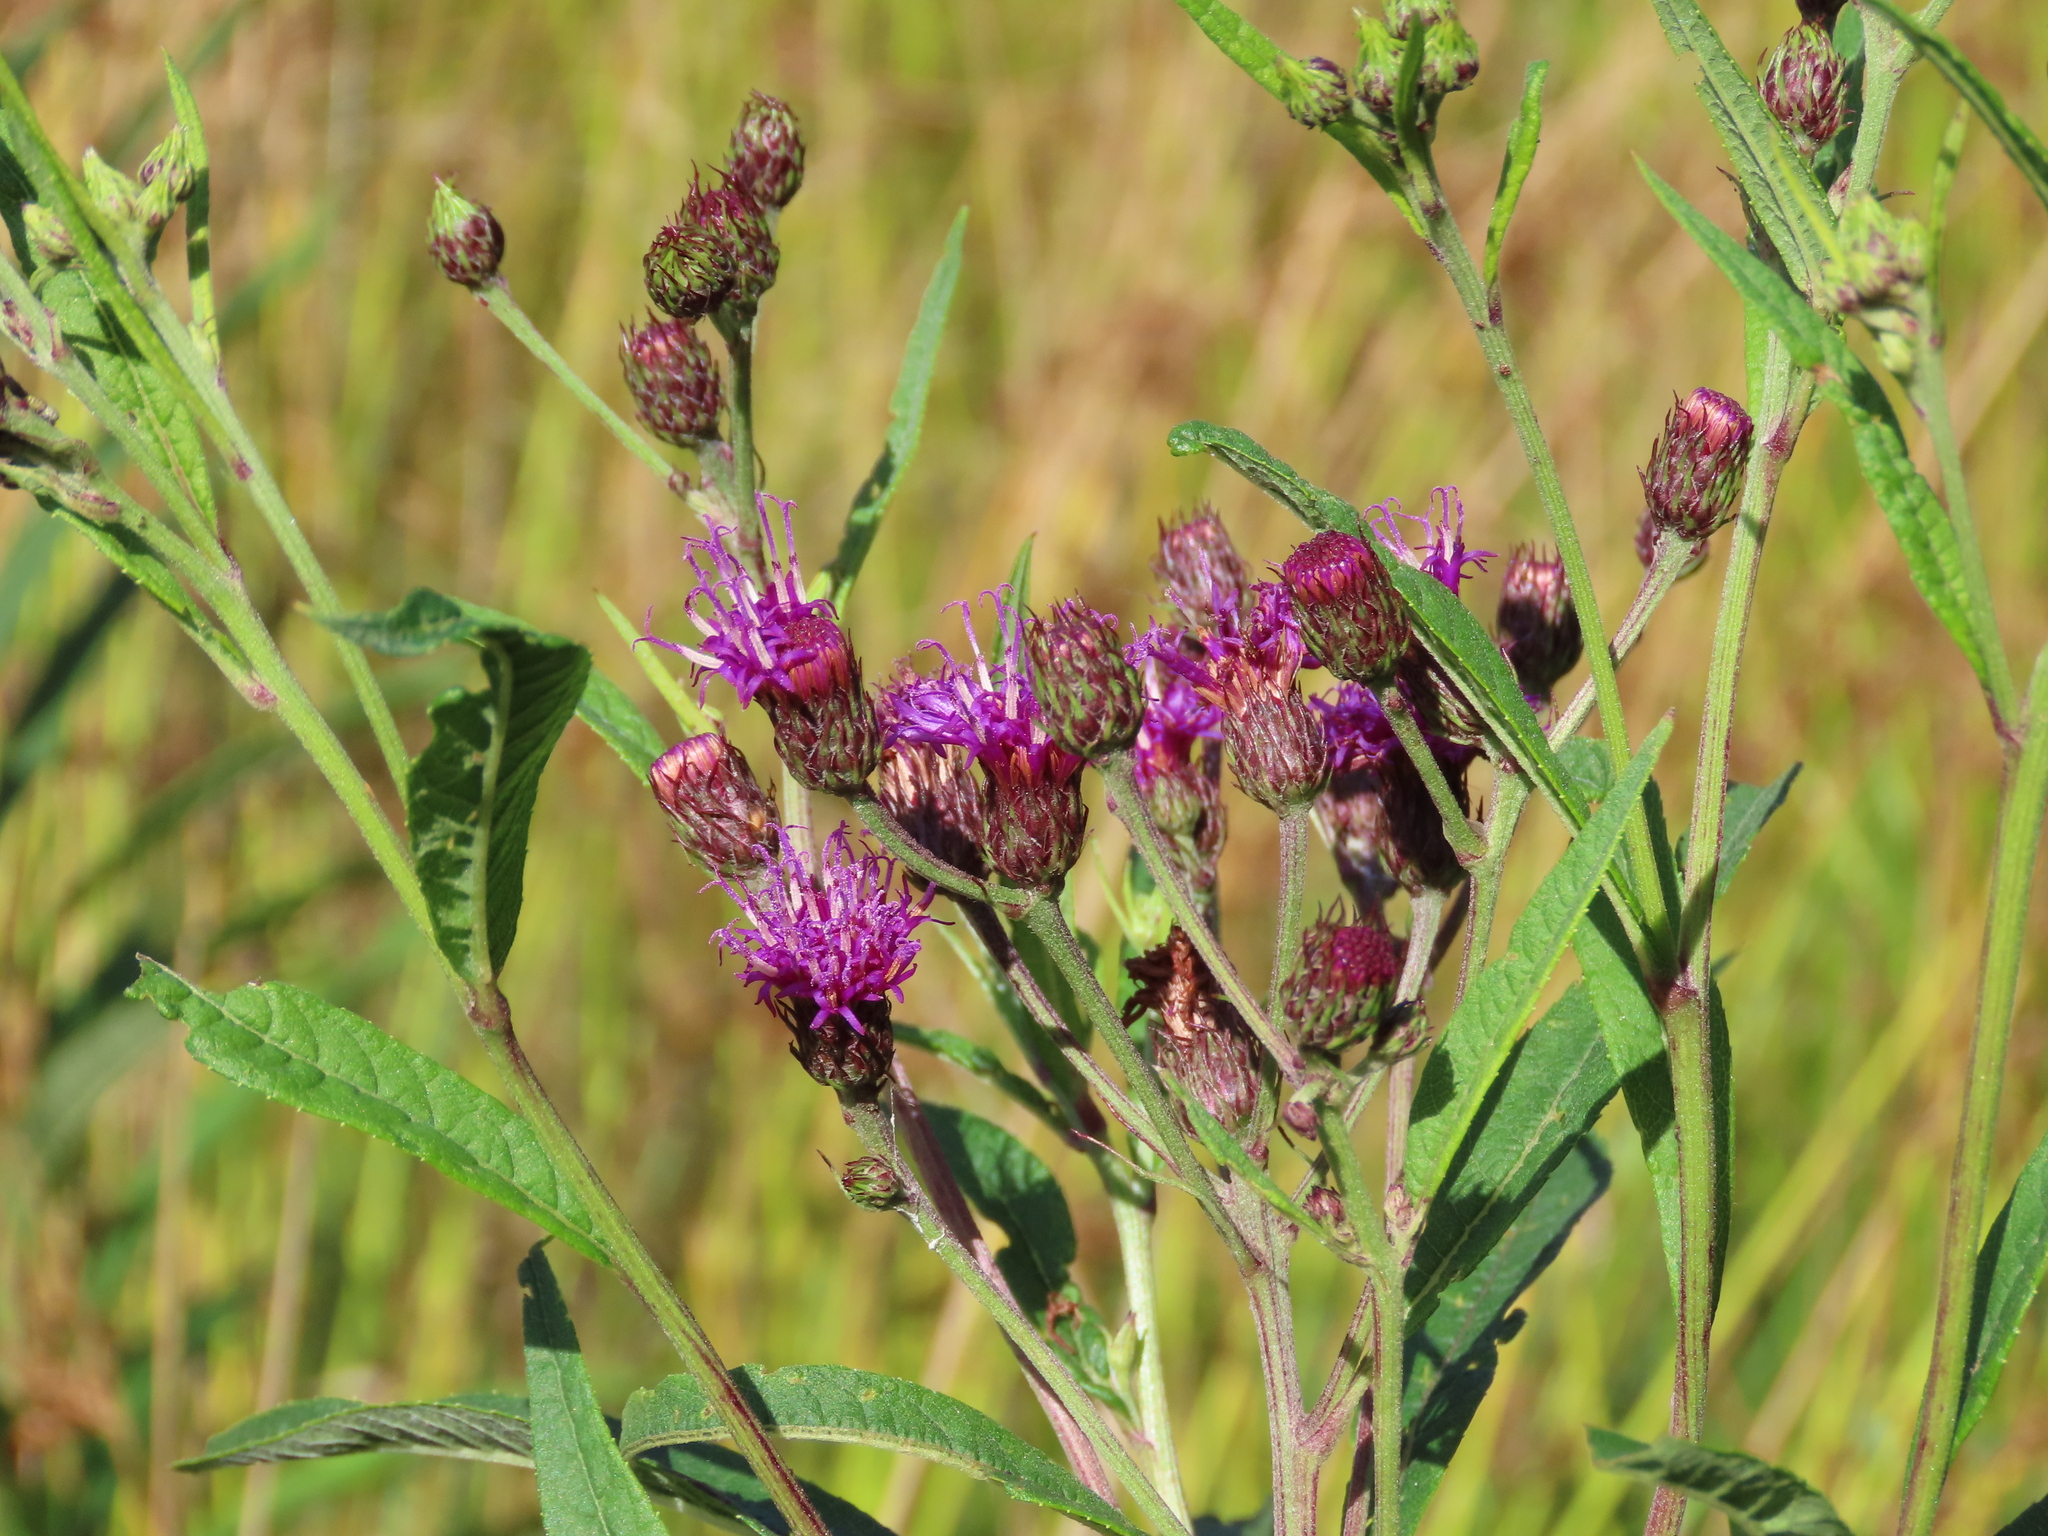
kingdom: Plantae
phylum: Tracheophyta
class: Magnoliopsida
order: Asterales
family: Asteraceae
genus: Vernonia
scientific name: Vernonia noveboracensis
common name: New york ironweed
